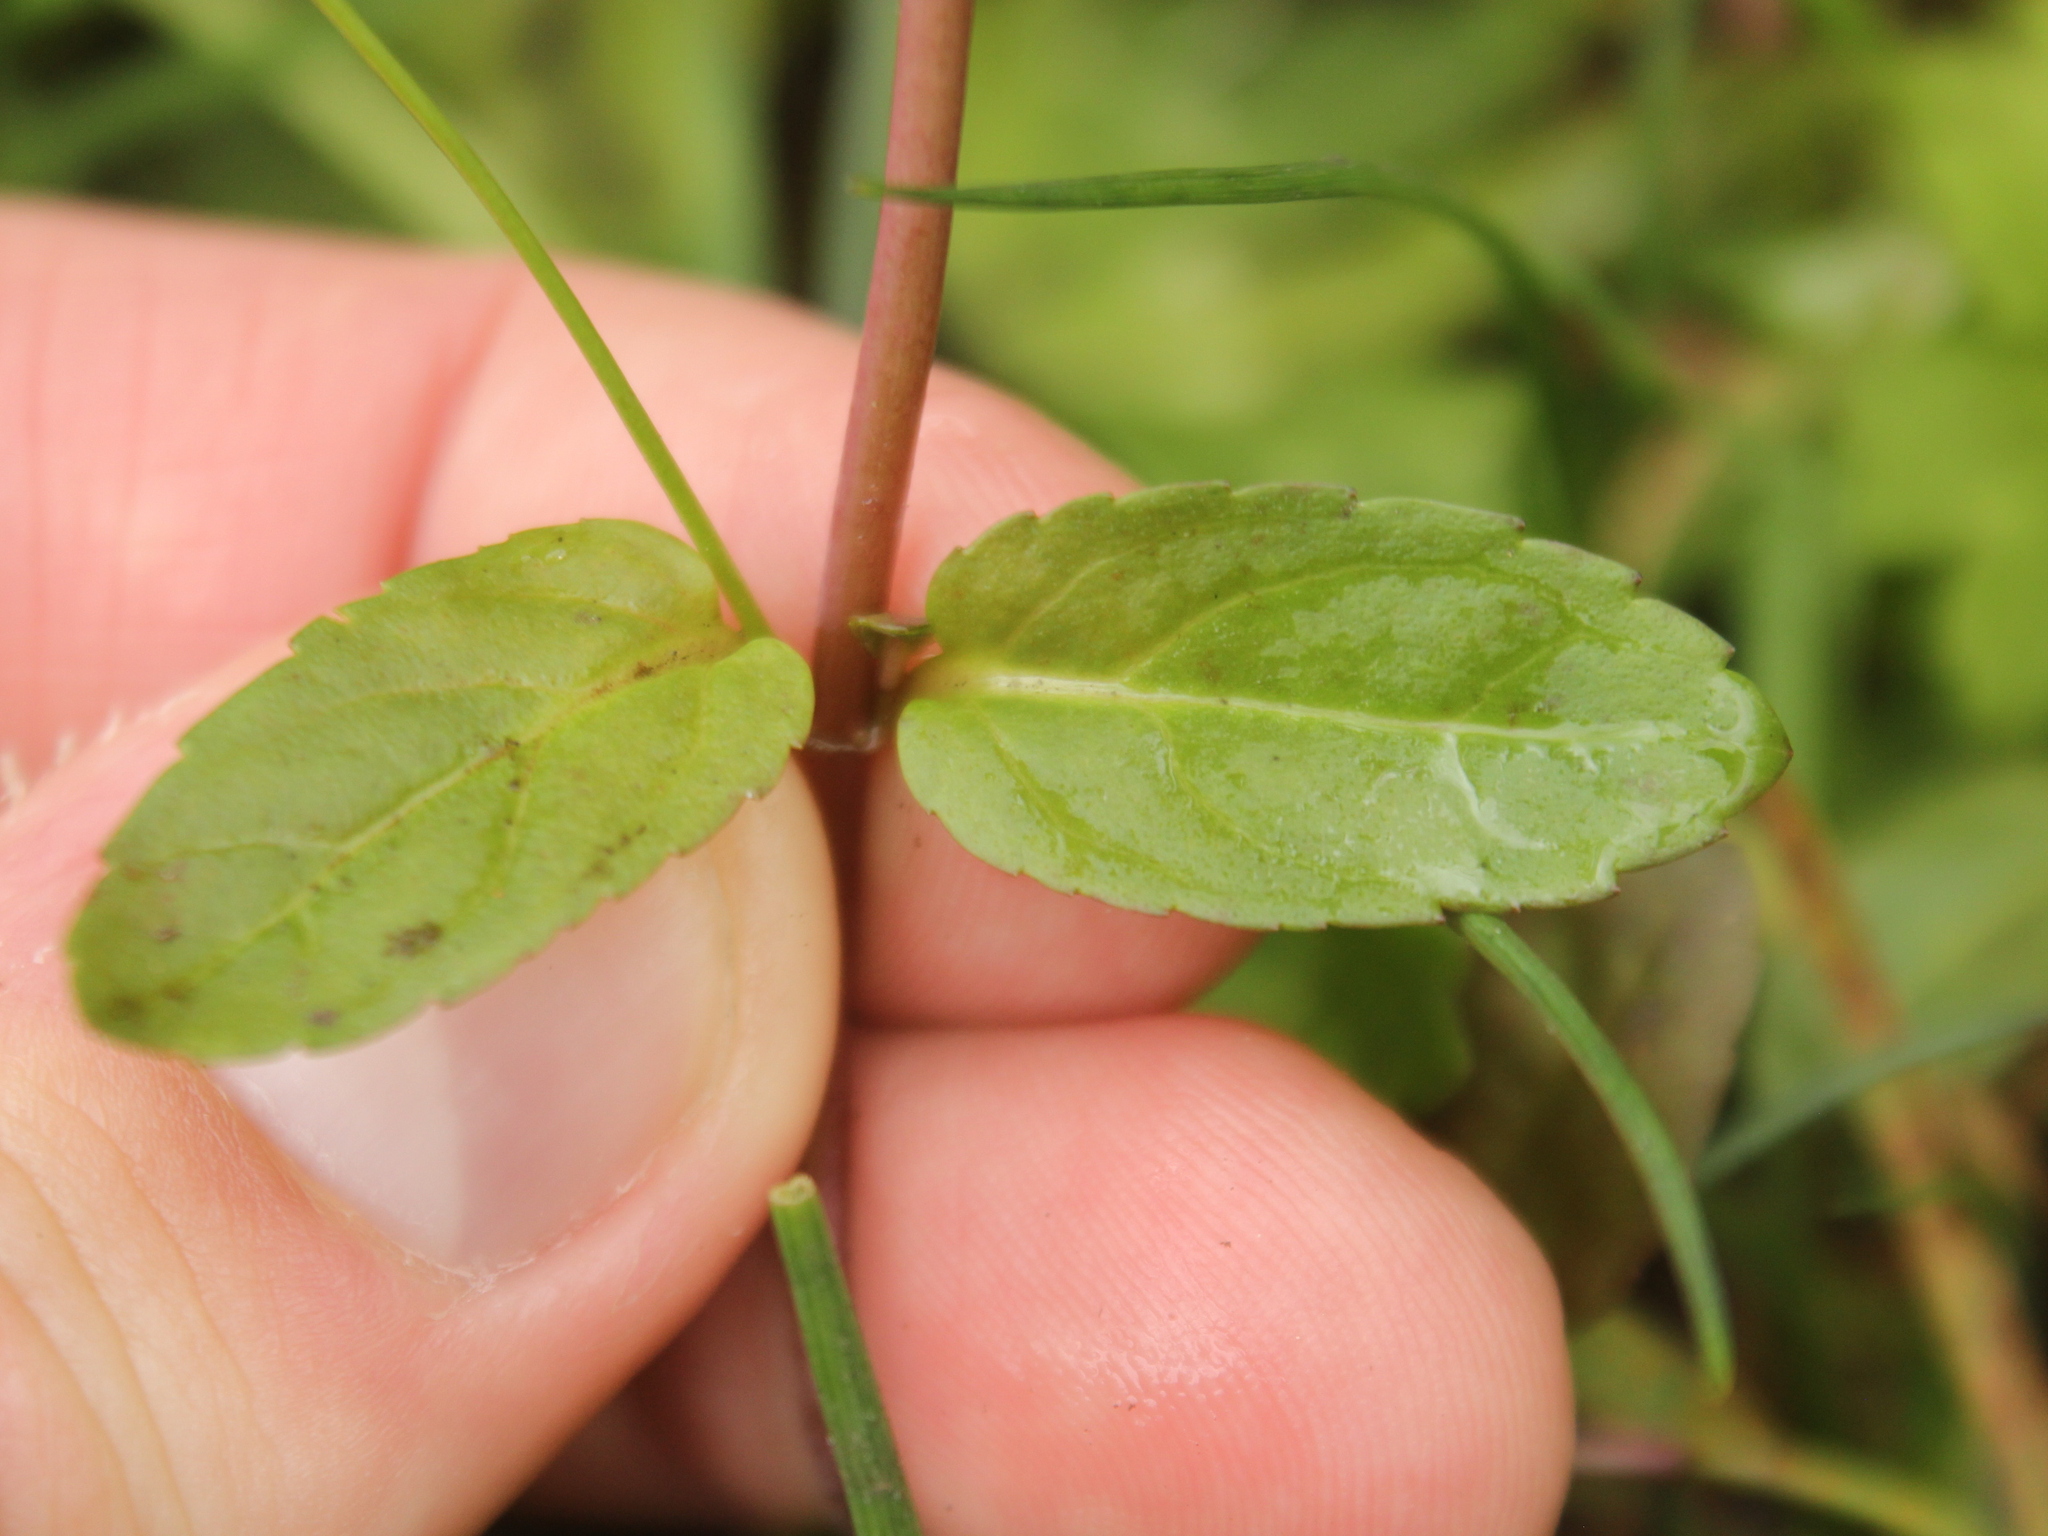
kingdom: Plantae
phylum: Tracheophyta
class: Magnoliopsida
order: Lamiales
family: Plantaginaceae
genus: Veronica
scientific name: Veronica americana
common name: American brooklime
